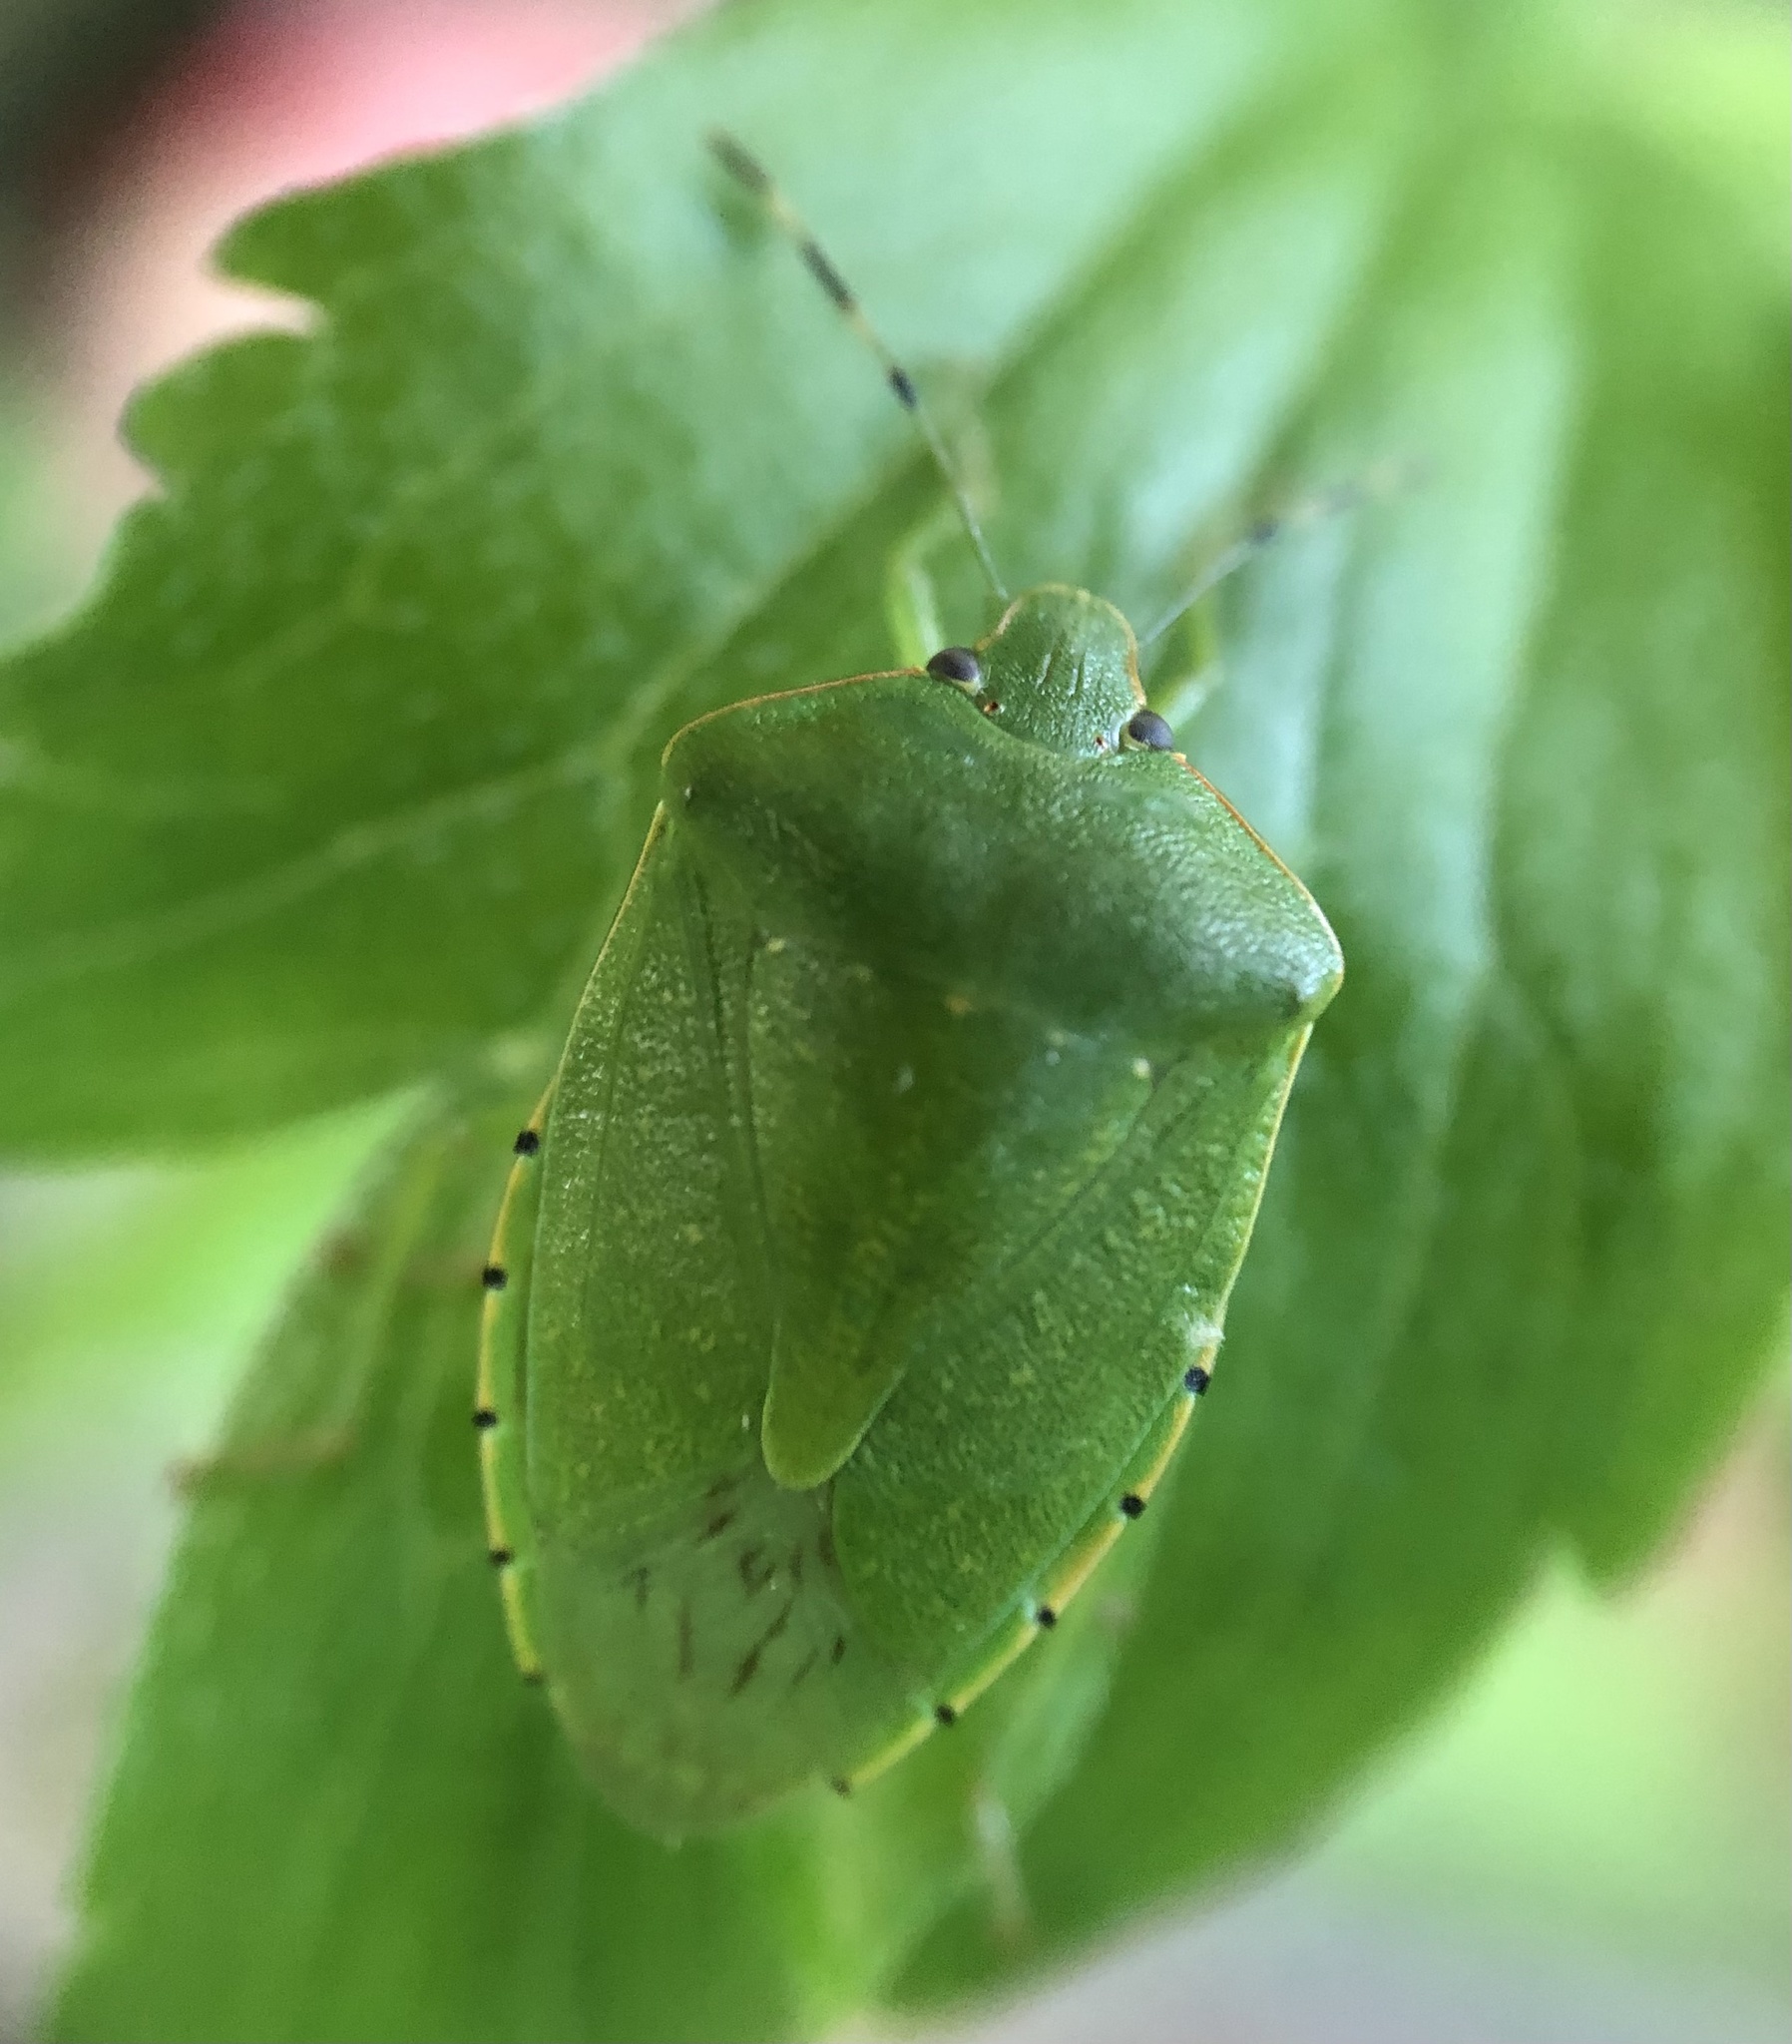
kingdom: Animalia
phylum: Arthropoda
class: Insecta
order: Hemiptera
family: Pentatomidae
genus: Chinavia
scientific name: Chinavia hilaris
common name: Green stink bug
